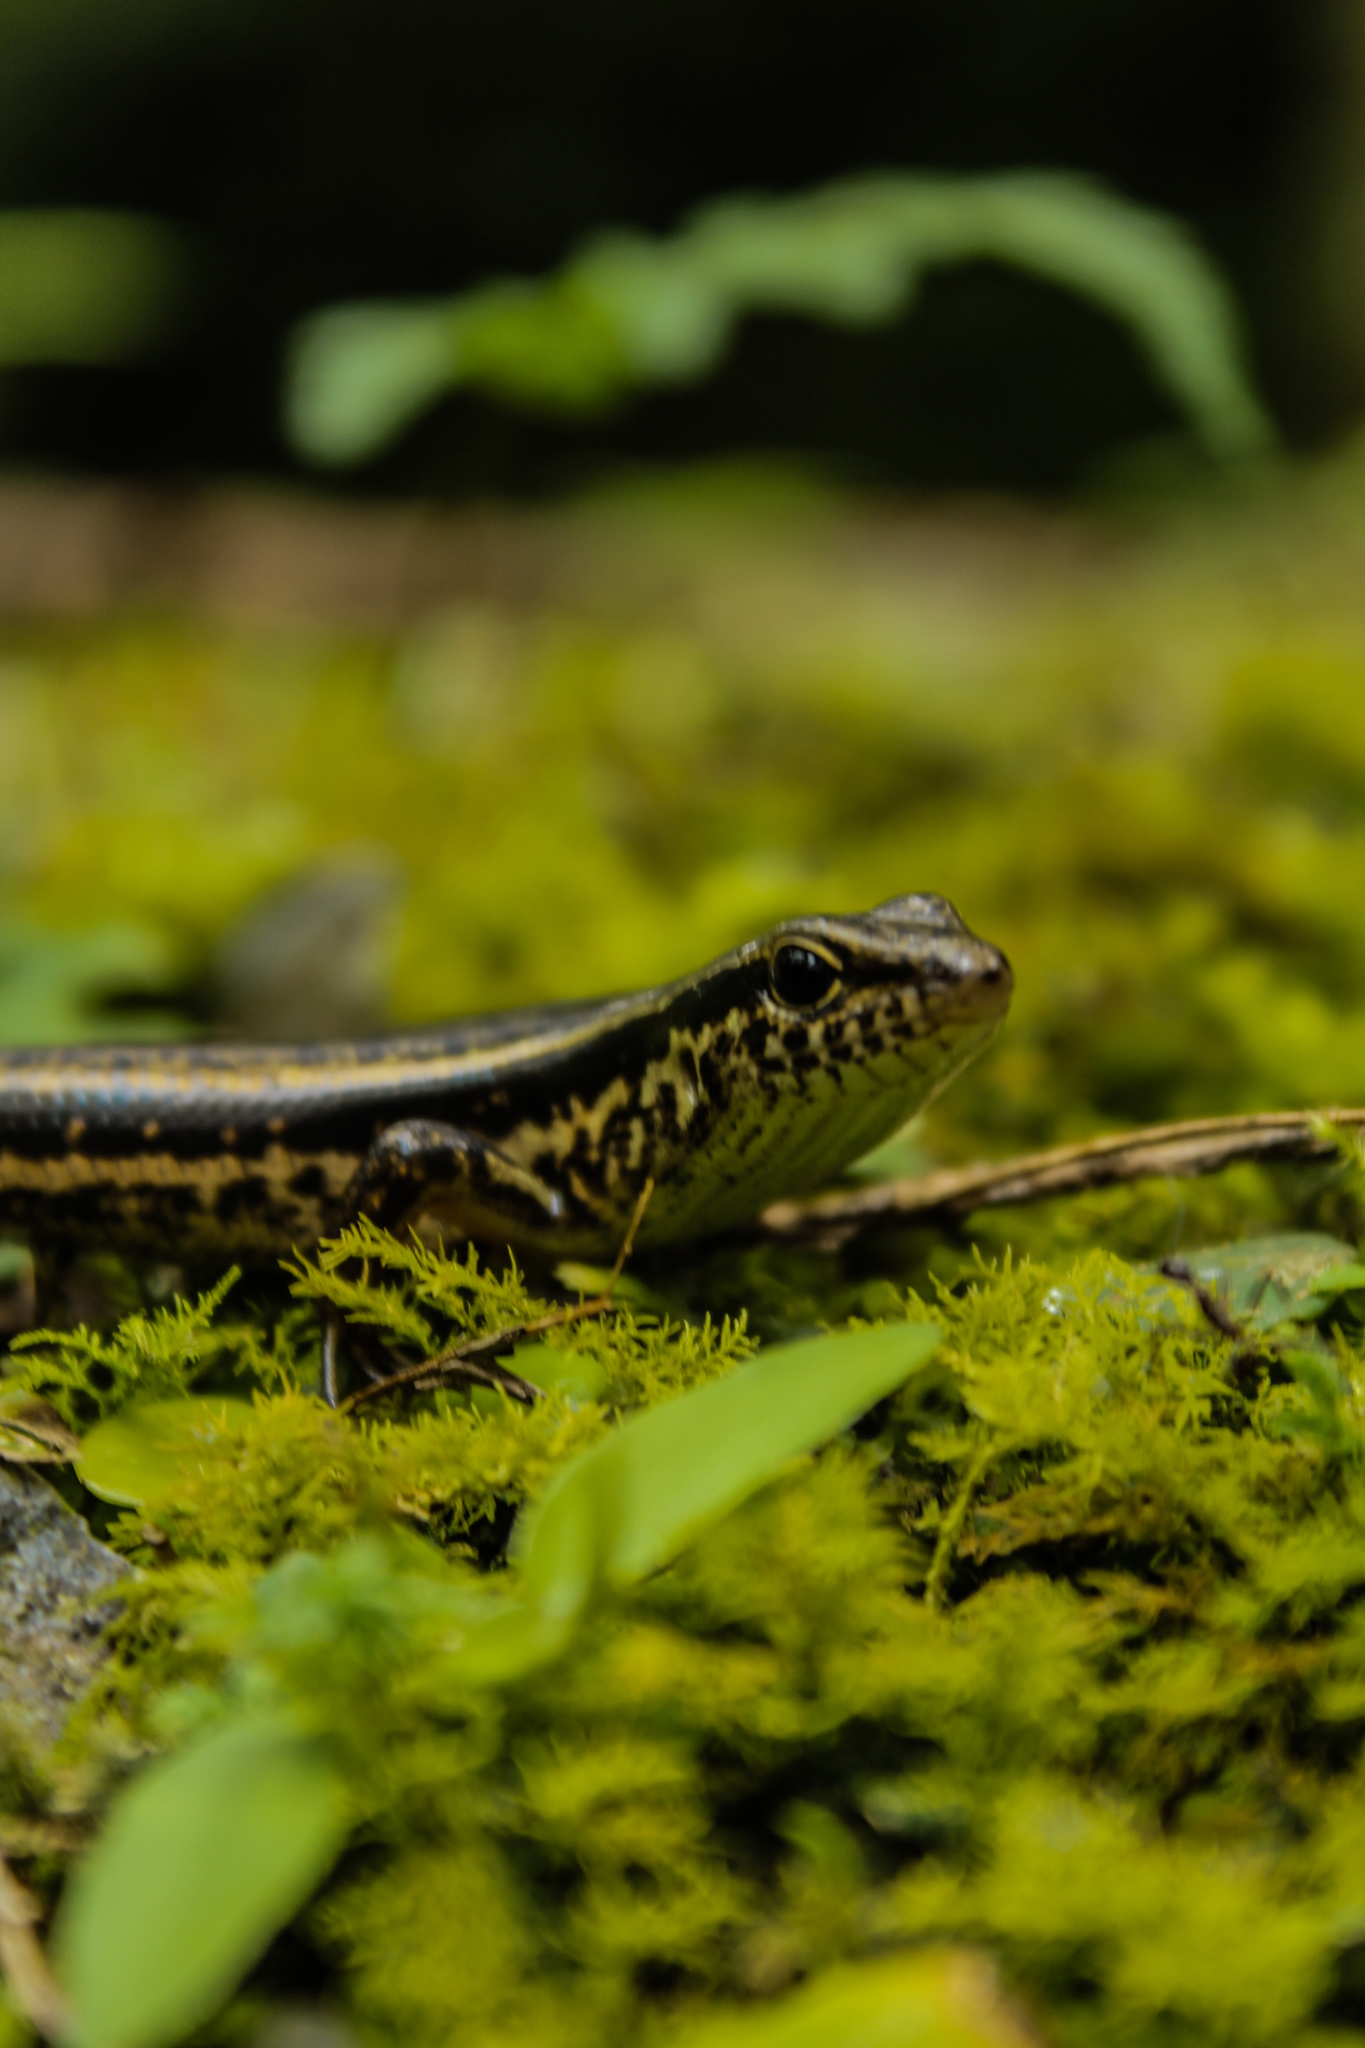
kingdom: Animalia
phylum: Chordata
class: Squamata
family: Scincidae
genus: Sphenomorphus
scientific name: Sphenomorphus indicus
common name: Himalayan forest skink
